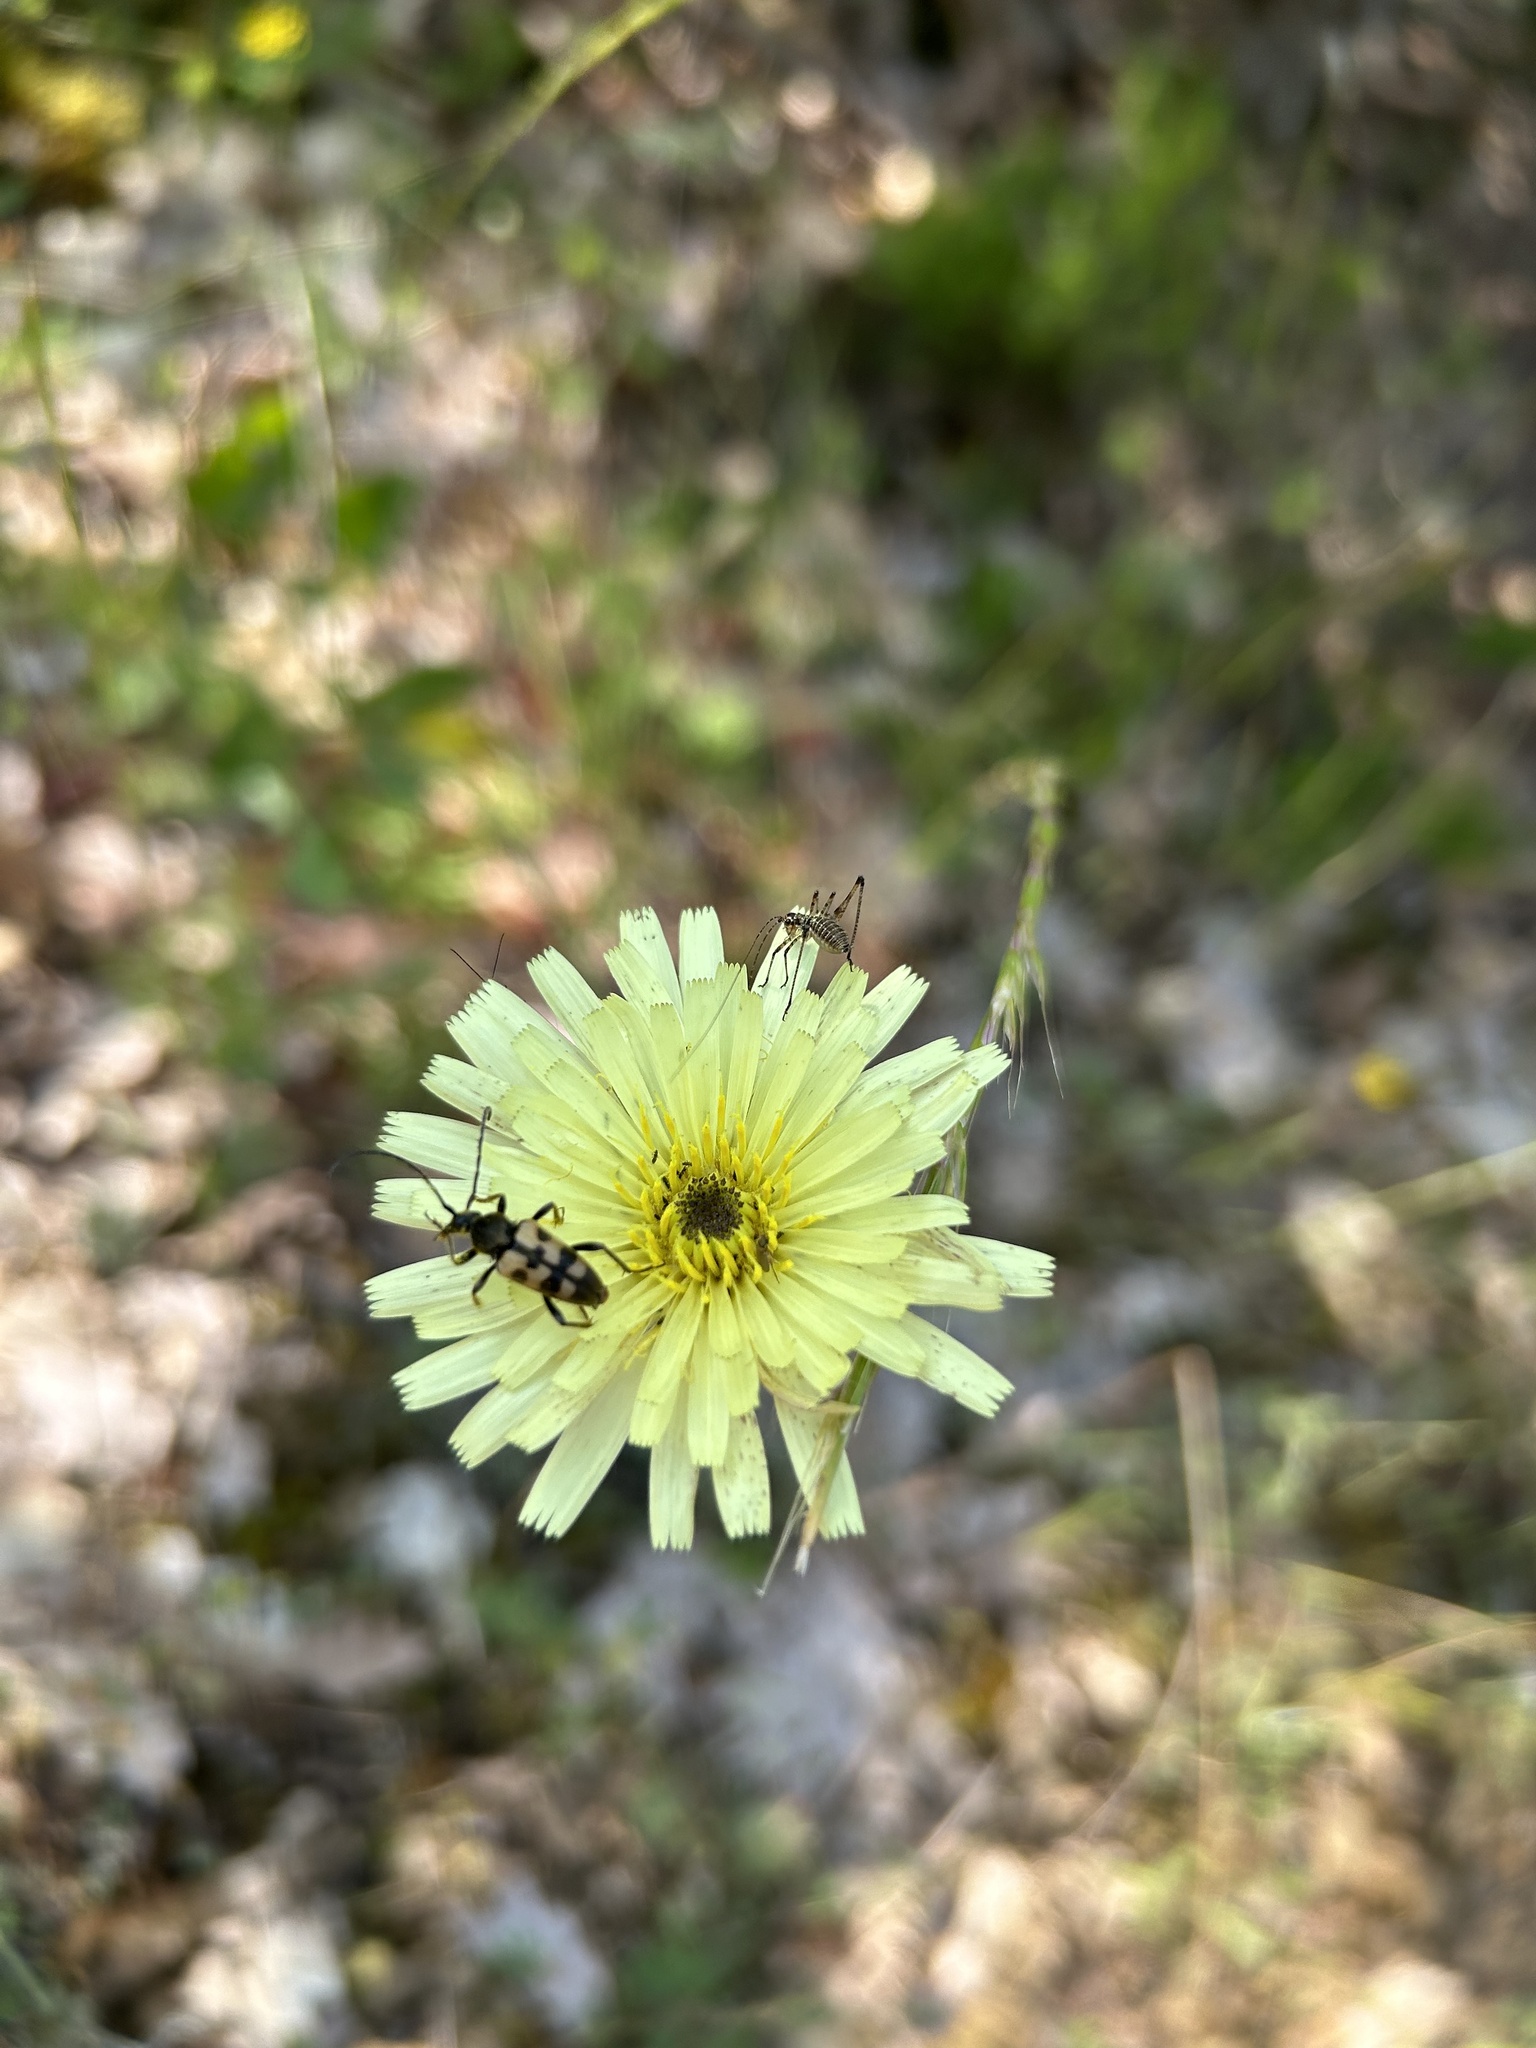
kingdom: Animalia
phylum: Arthropoda
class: Insecta
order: Coleoptera
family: Cerambycidae
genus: Pachytodes
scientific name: Pachytodes
